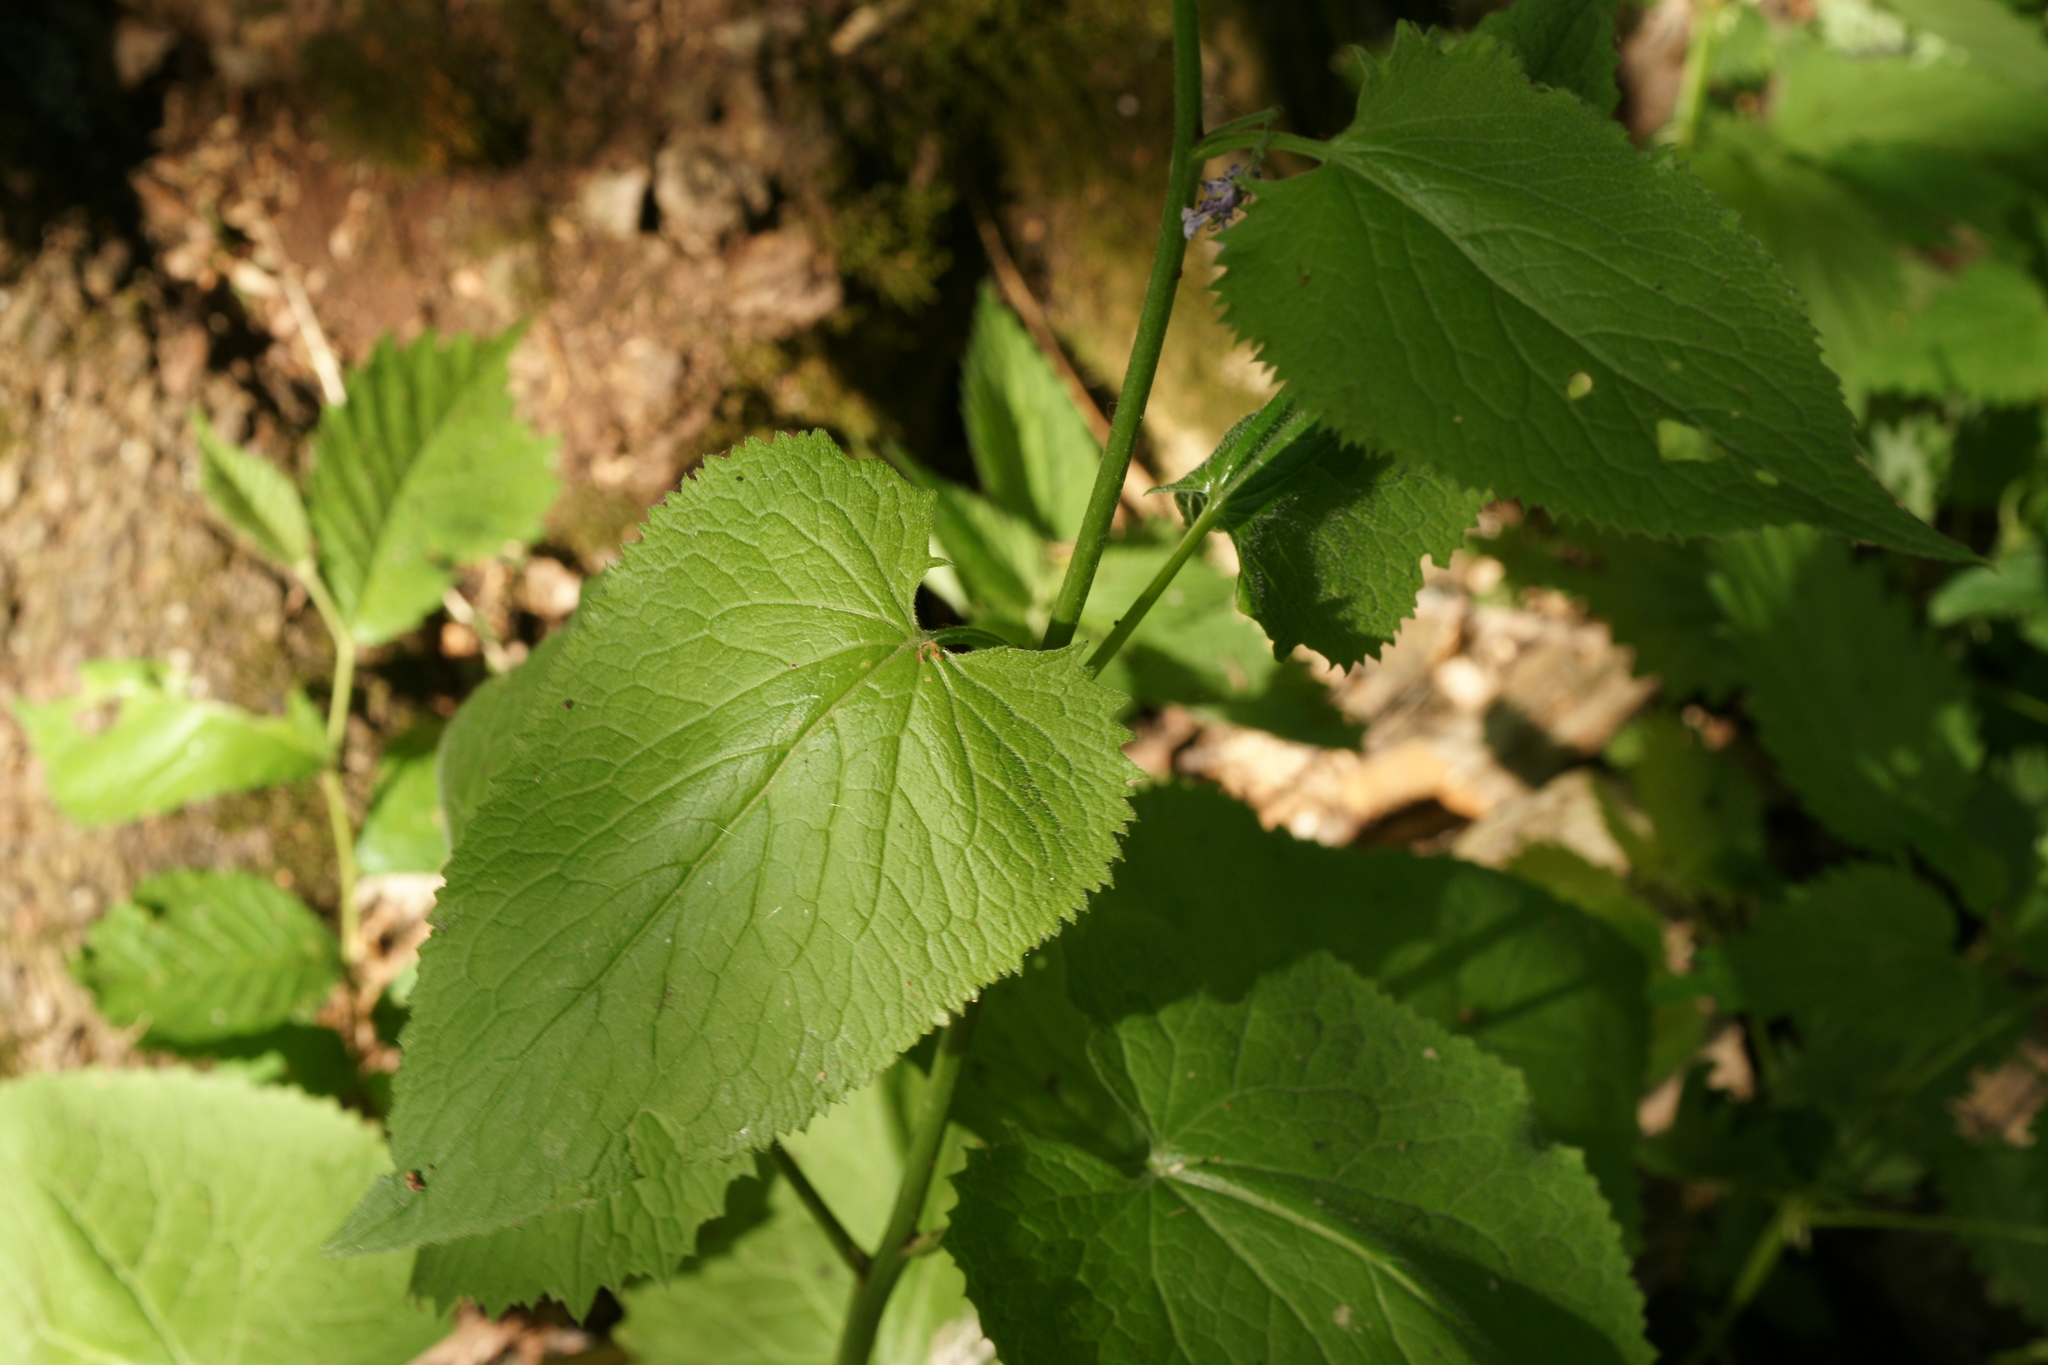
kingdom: Plantae
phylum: Tracheophyta
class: Magnoliopsida
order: Brassicales
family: Brassicaceae
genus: Lunaria
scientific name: Lunaria rediviva
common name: Perennial honesty
